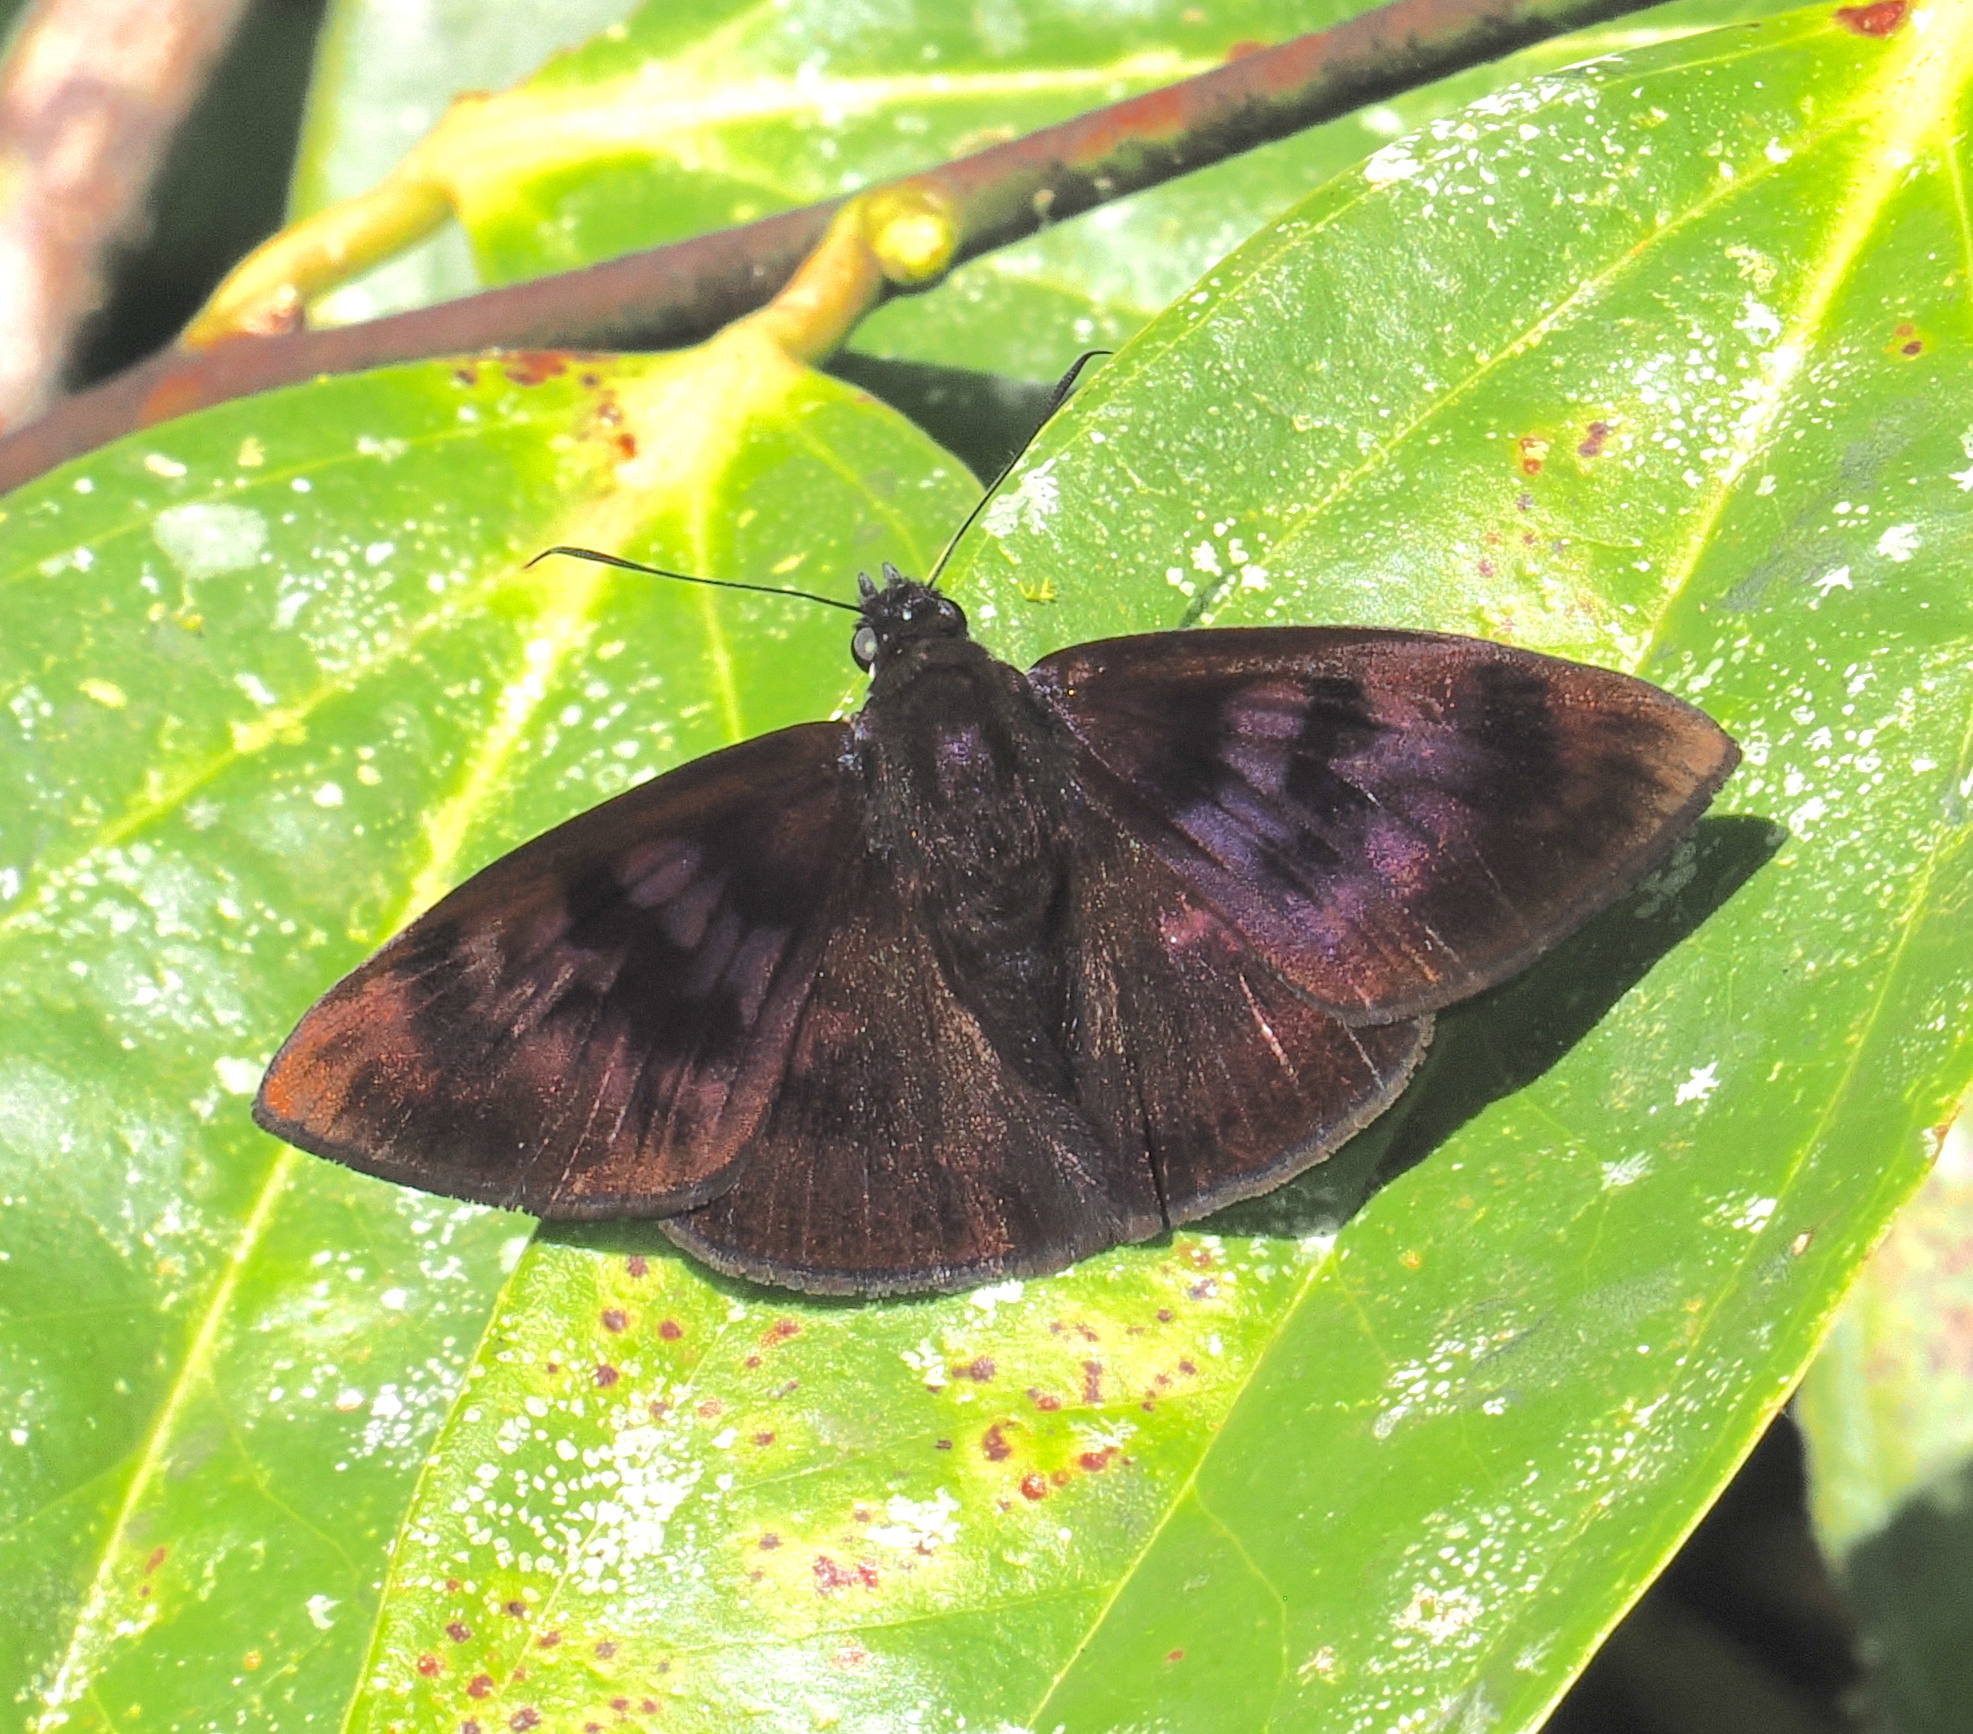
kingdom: Animalia
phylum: Arthropoda
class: Insecta
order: Lepidoptera
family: Hesperiidae
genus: Anastrus
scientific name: Anastrus Echelatus sempiternus
